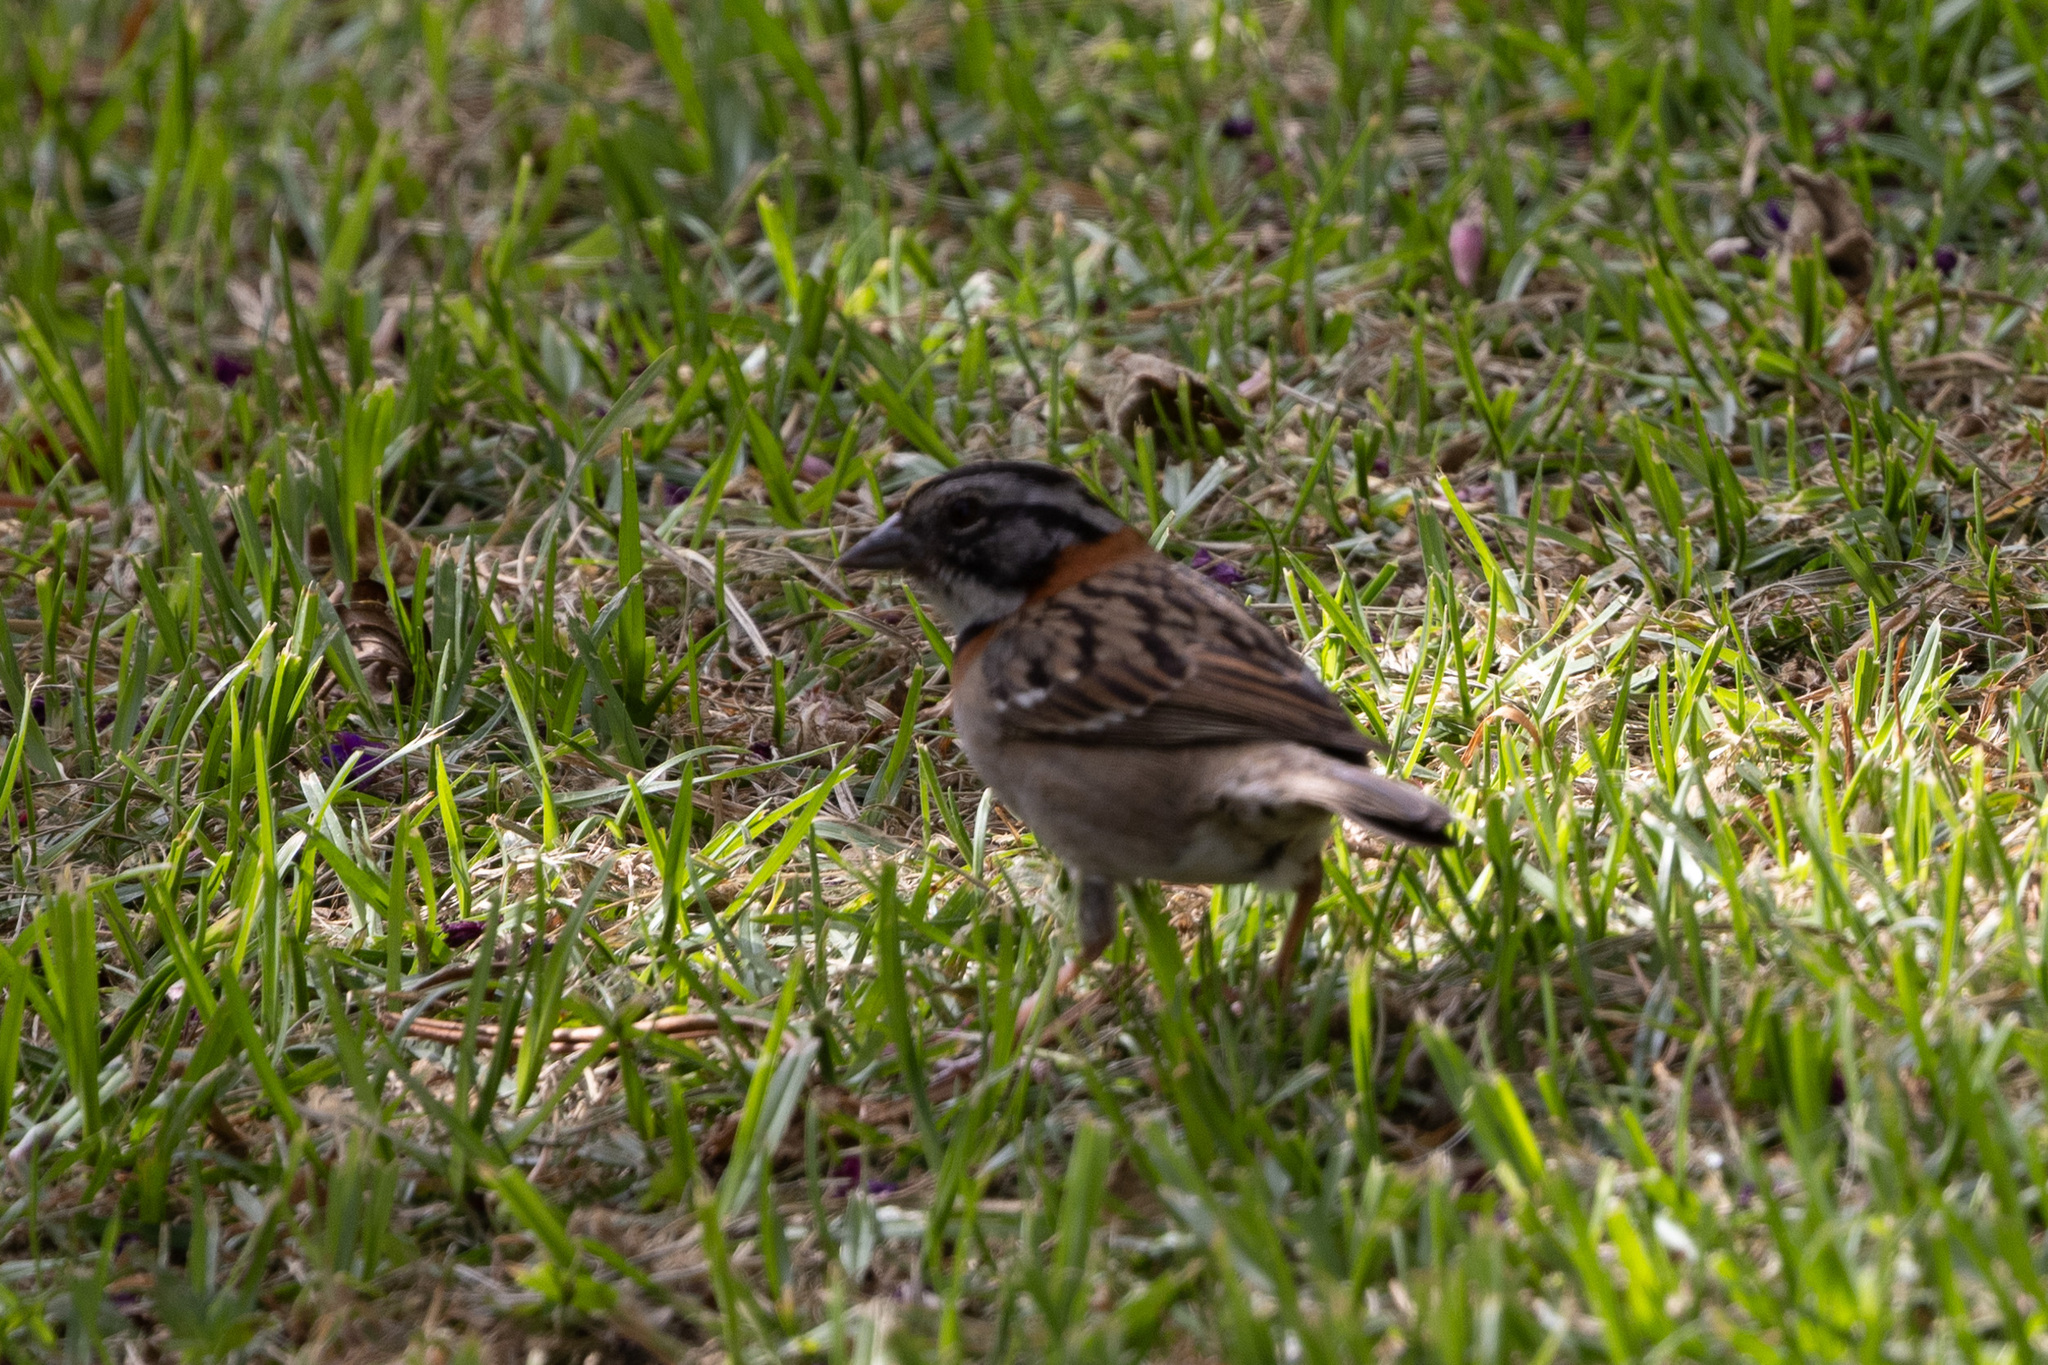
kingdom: Animalia
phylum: Chordata
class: Aves
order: Passeriformes
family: Passerellidae
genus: Zonotrichia
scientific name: Zonotrichia capensis
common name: Rufous-collared sparrow
